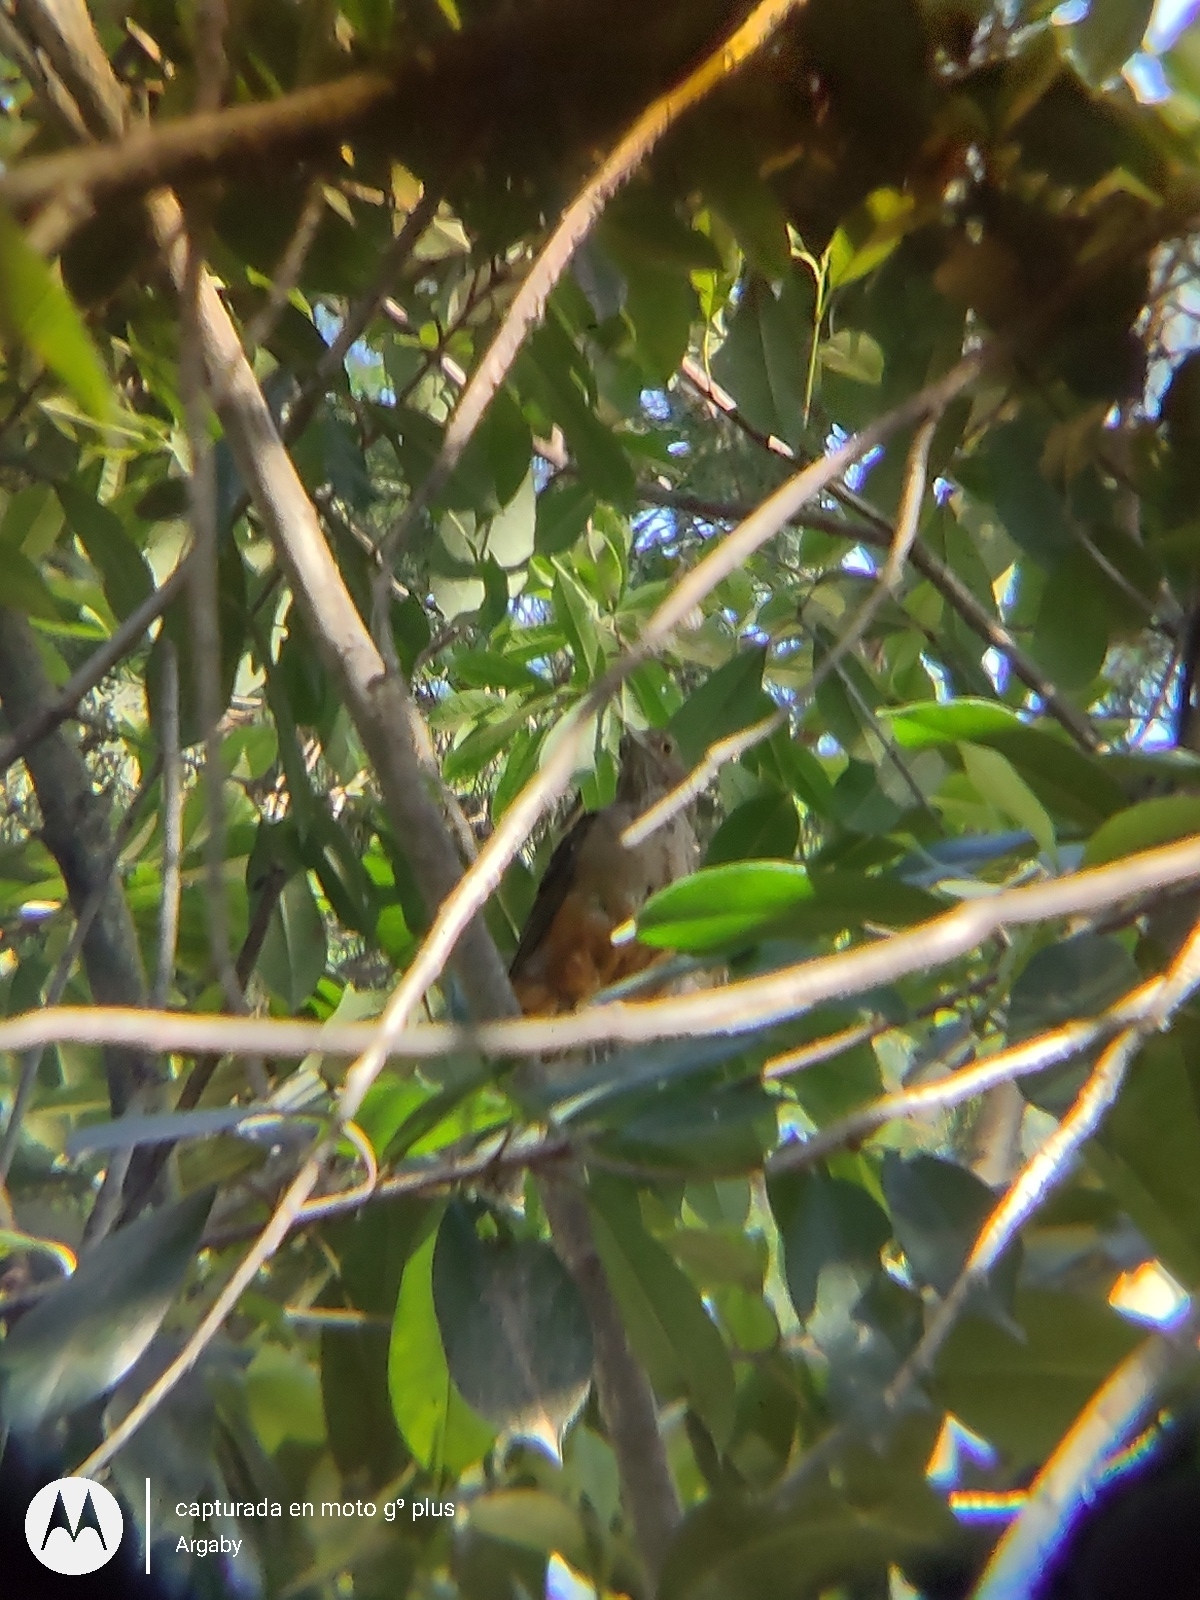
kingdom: Animalia
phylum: Chordata
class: Aves
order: Passeriformes
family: Turdidae
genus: Turdus
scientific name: Turdus rufiventris
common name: Rufous-bellied thrush
